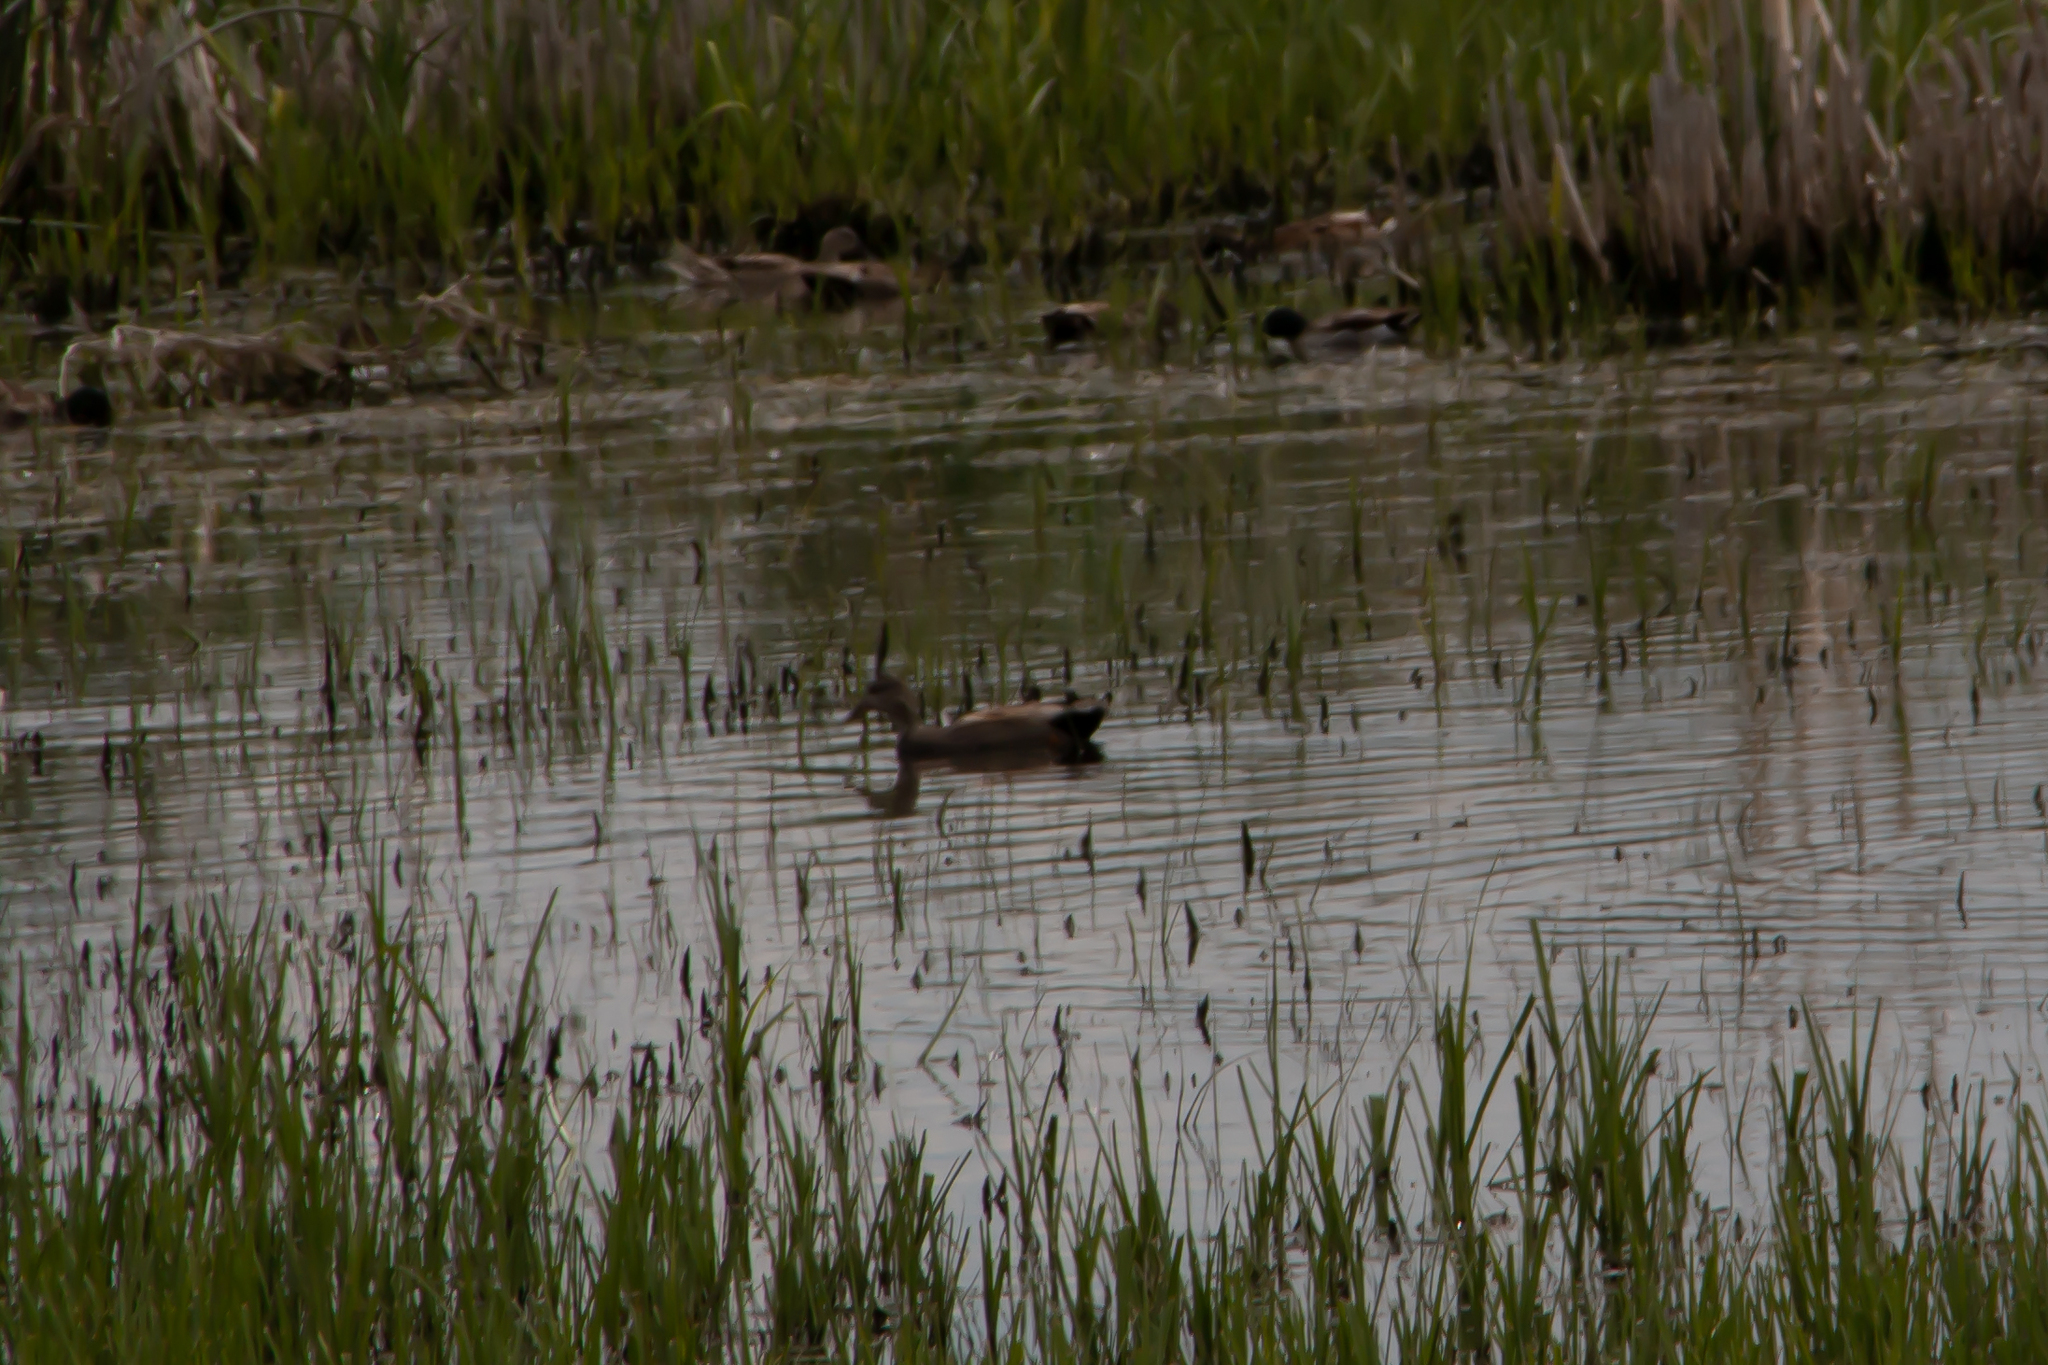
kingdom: Animalia
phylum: Chordata
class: Aves
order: Anseriformes
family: Anatidae
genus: Mareca
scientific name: Mareca strepera
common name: Gadwall
